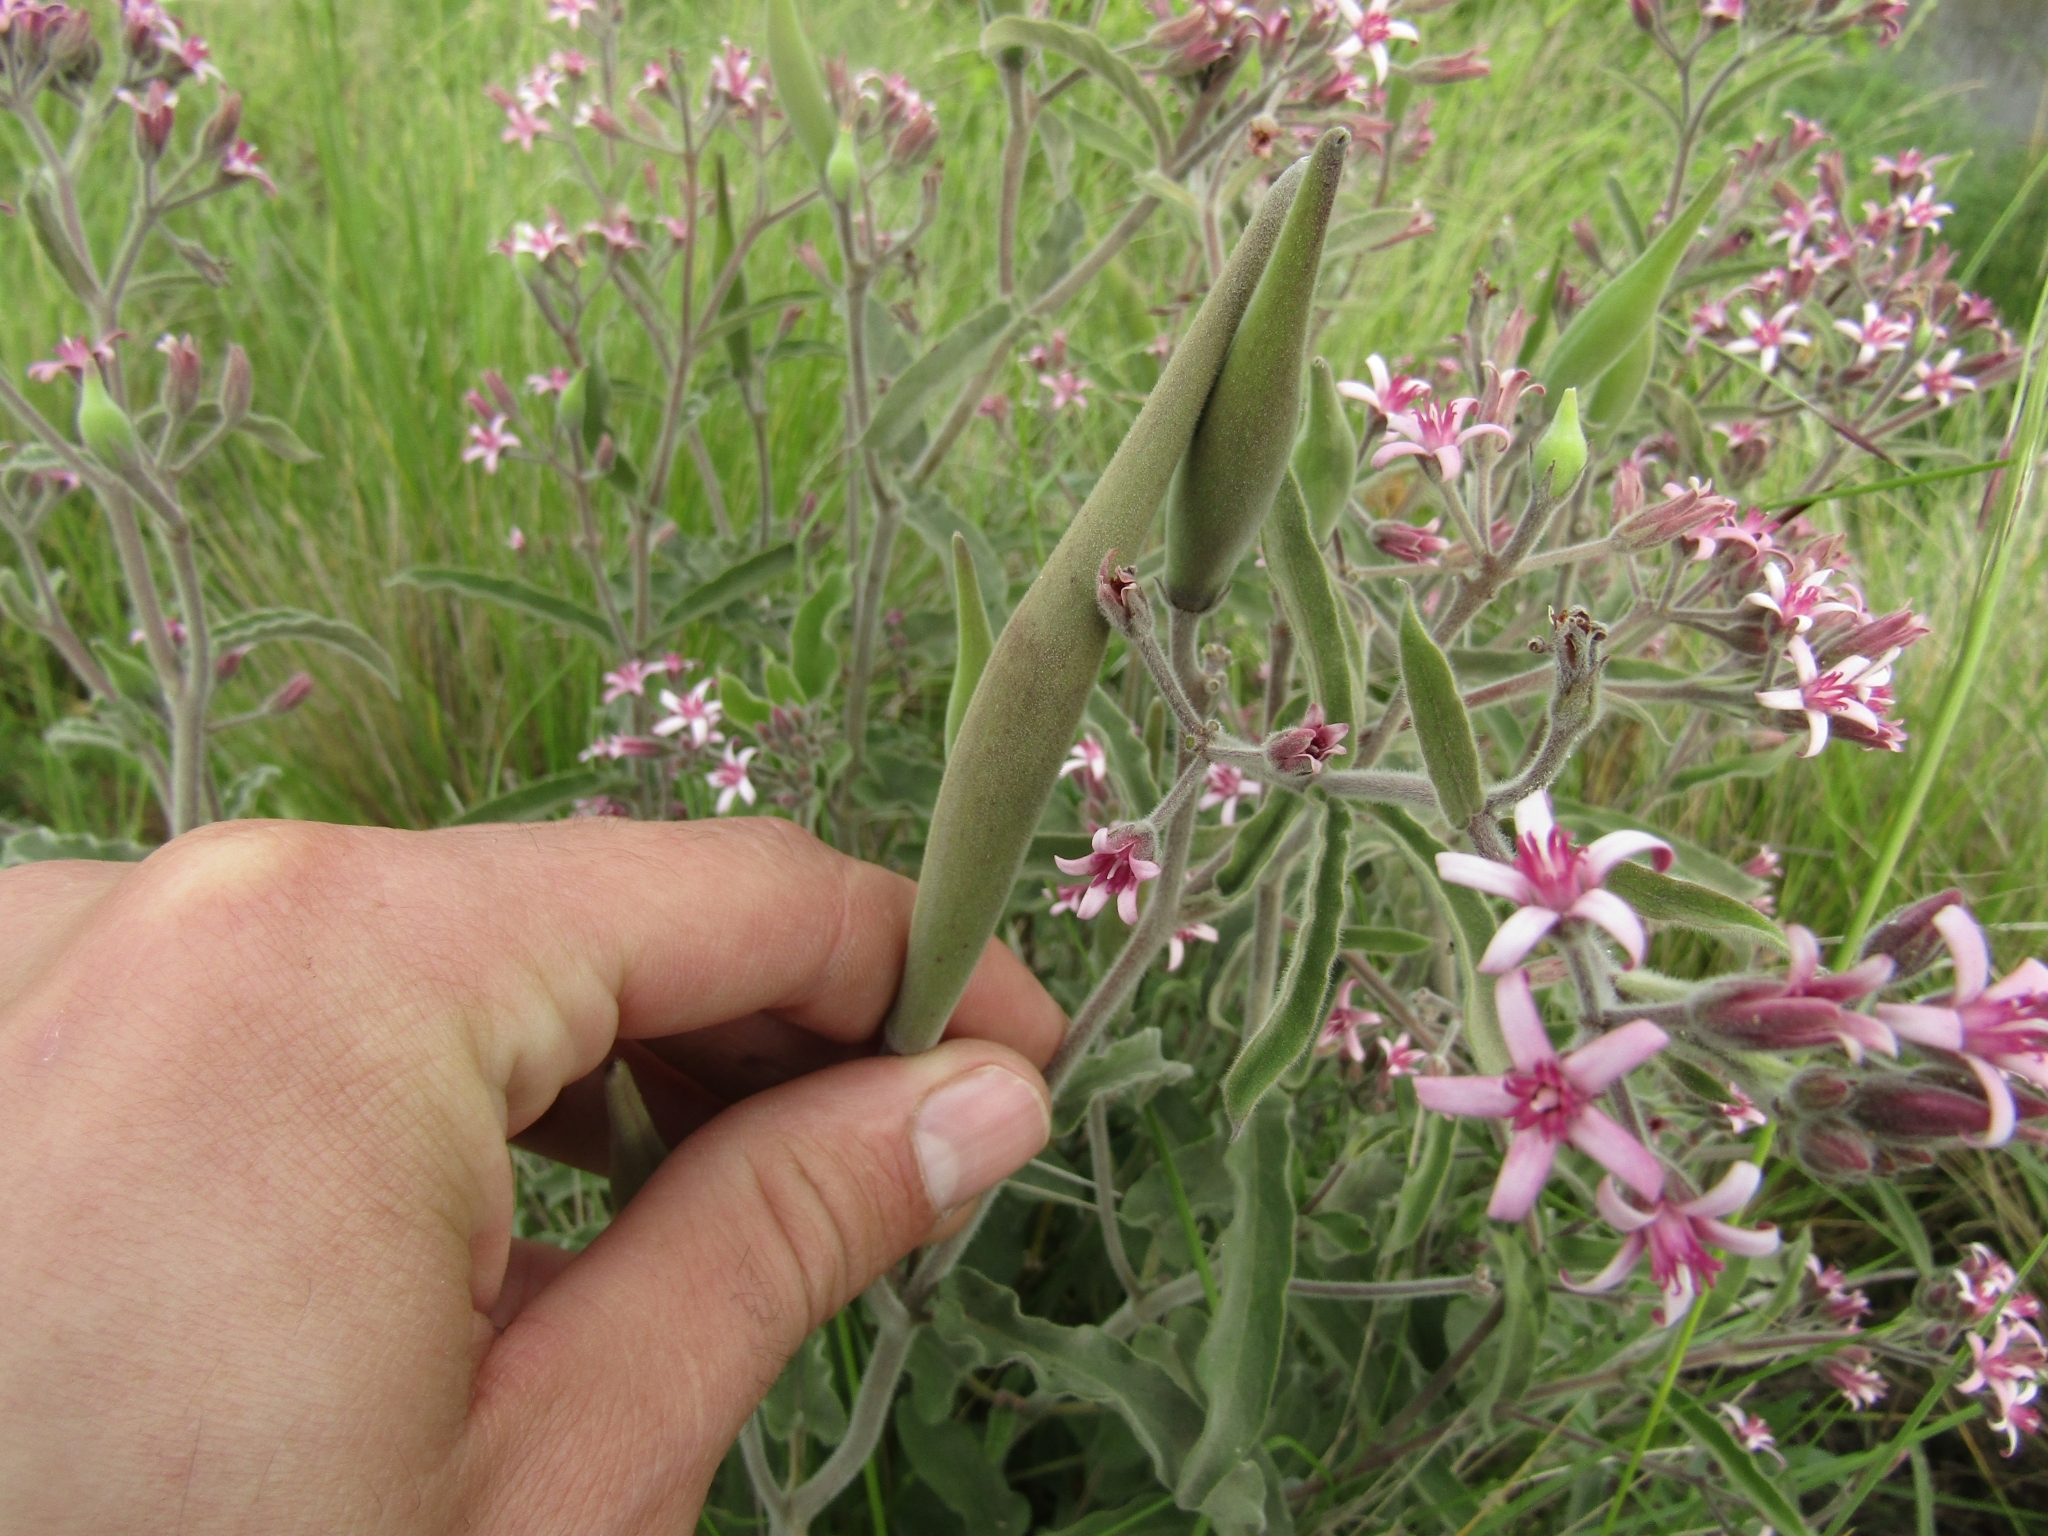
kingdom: Plantae
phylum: Tracheophyta
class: Magnoliopsida
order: Gentianales
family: Apocynaceae
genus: Oxypetalum
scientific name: Oxypetalum solanoides
